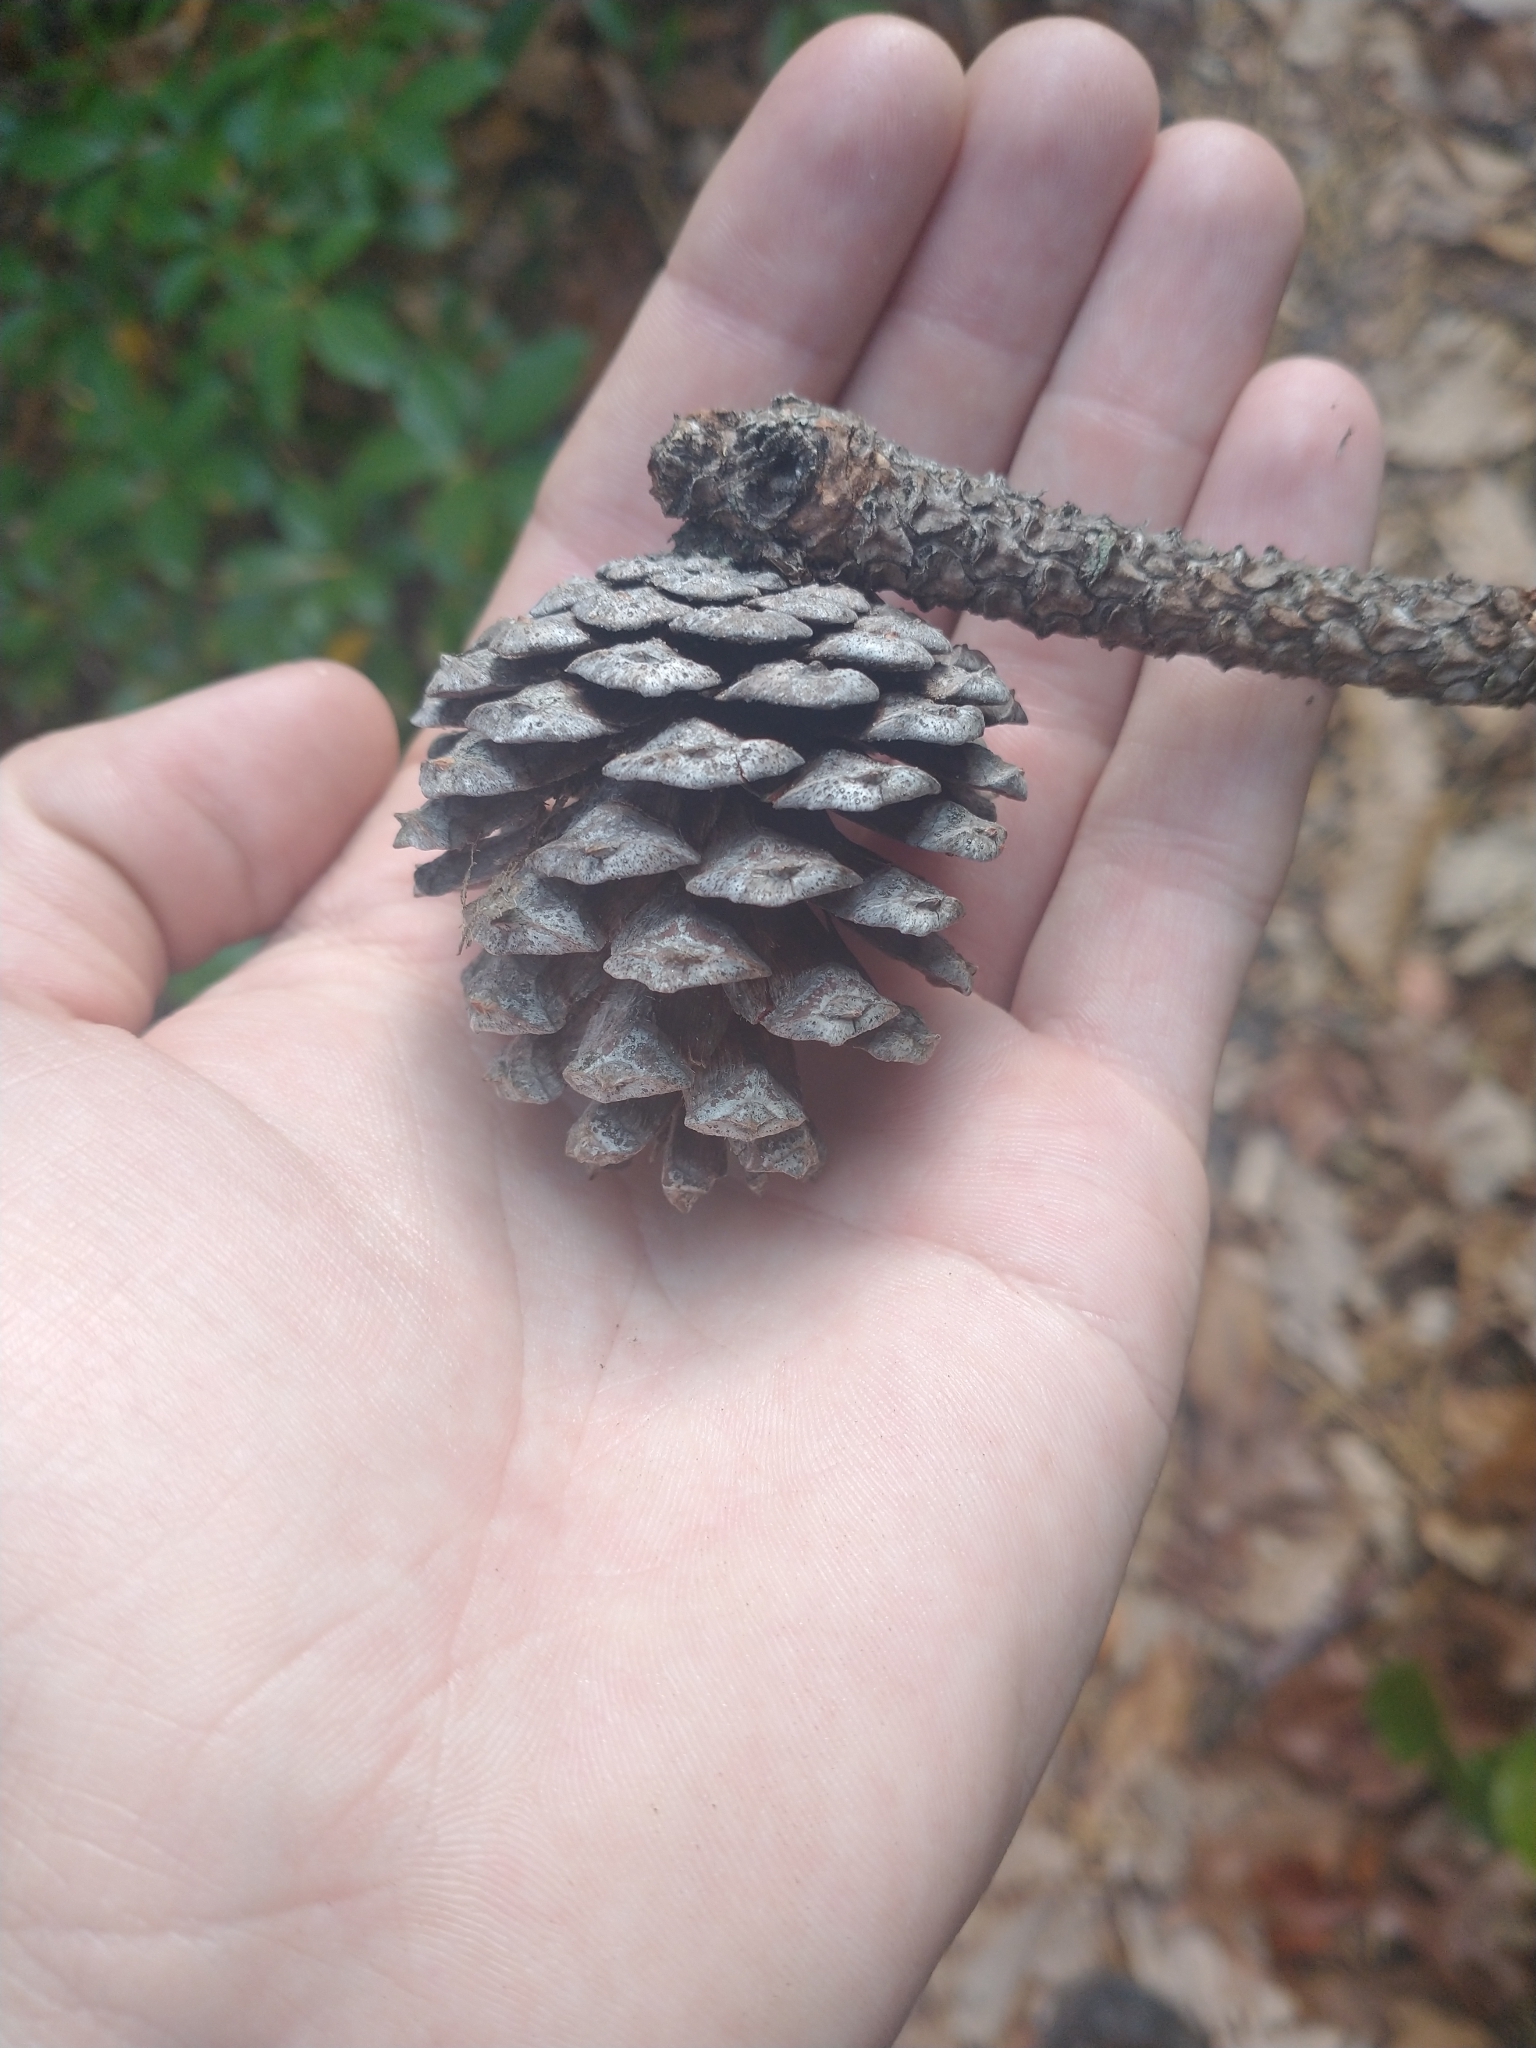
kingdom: Plantae
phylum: Tracheophyta
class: Pinopsida
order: Pinales
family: Pinaceae
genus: Pinus
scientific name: Pinus virginiana
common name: Scrub pine
